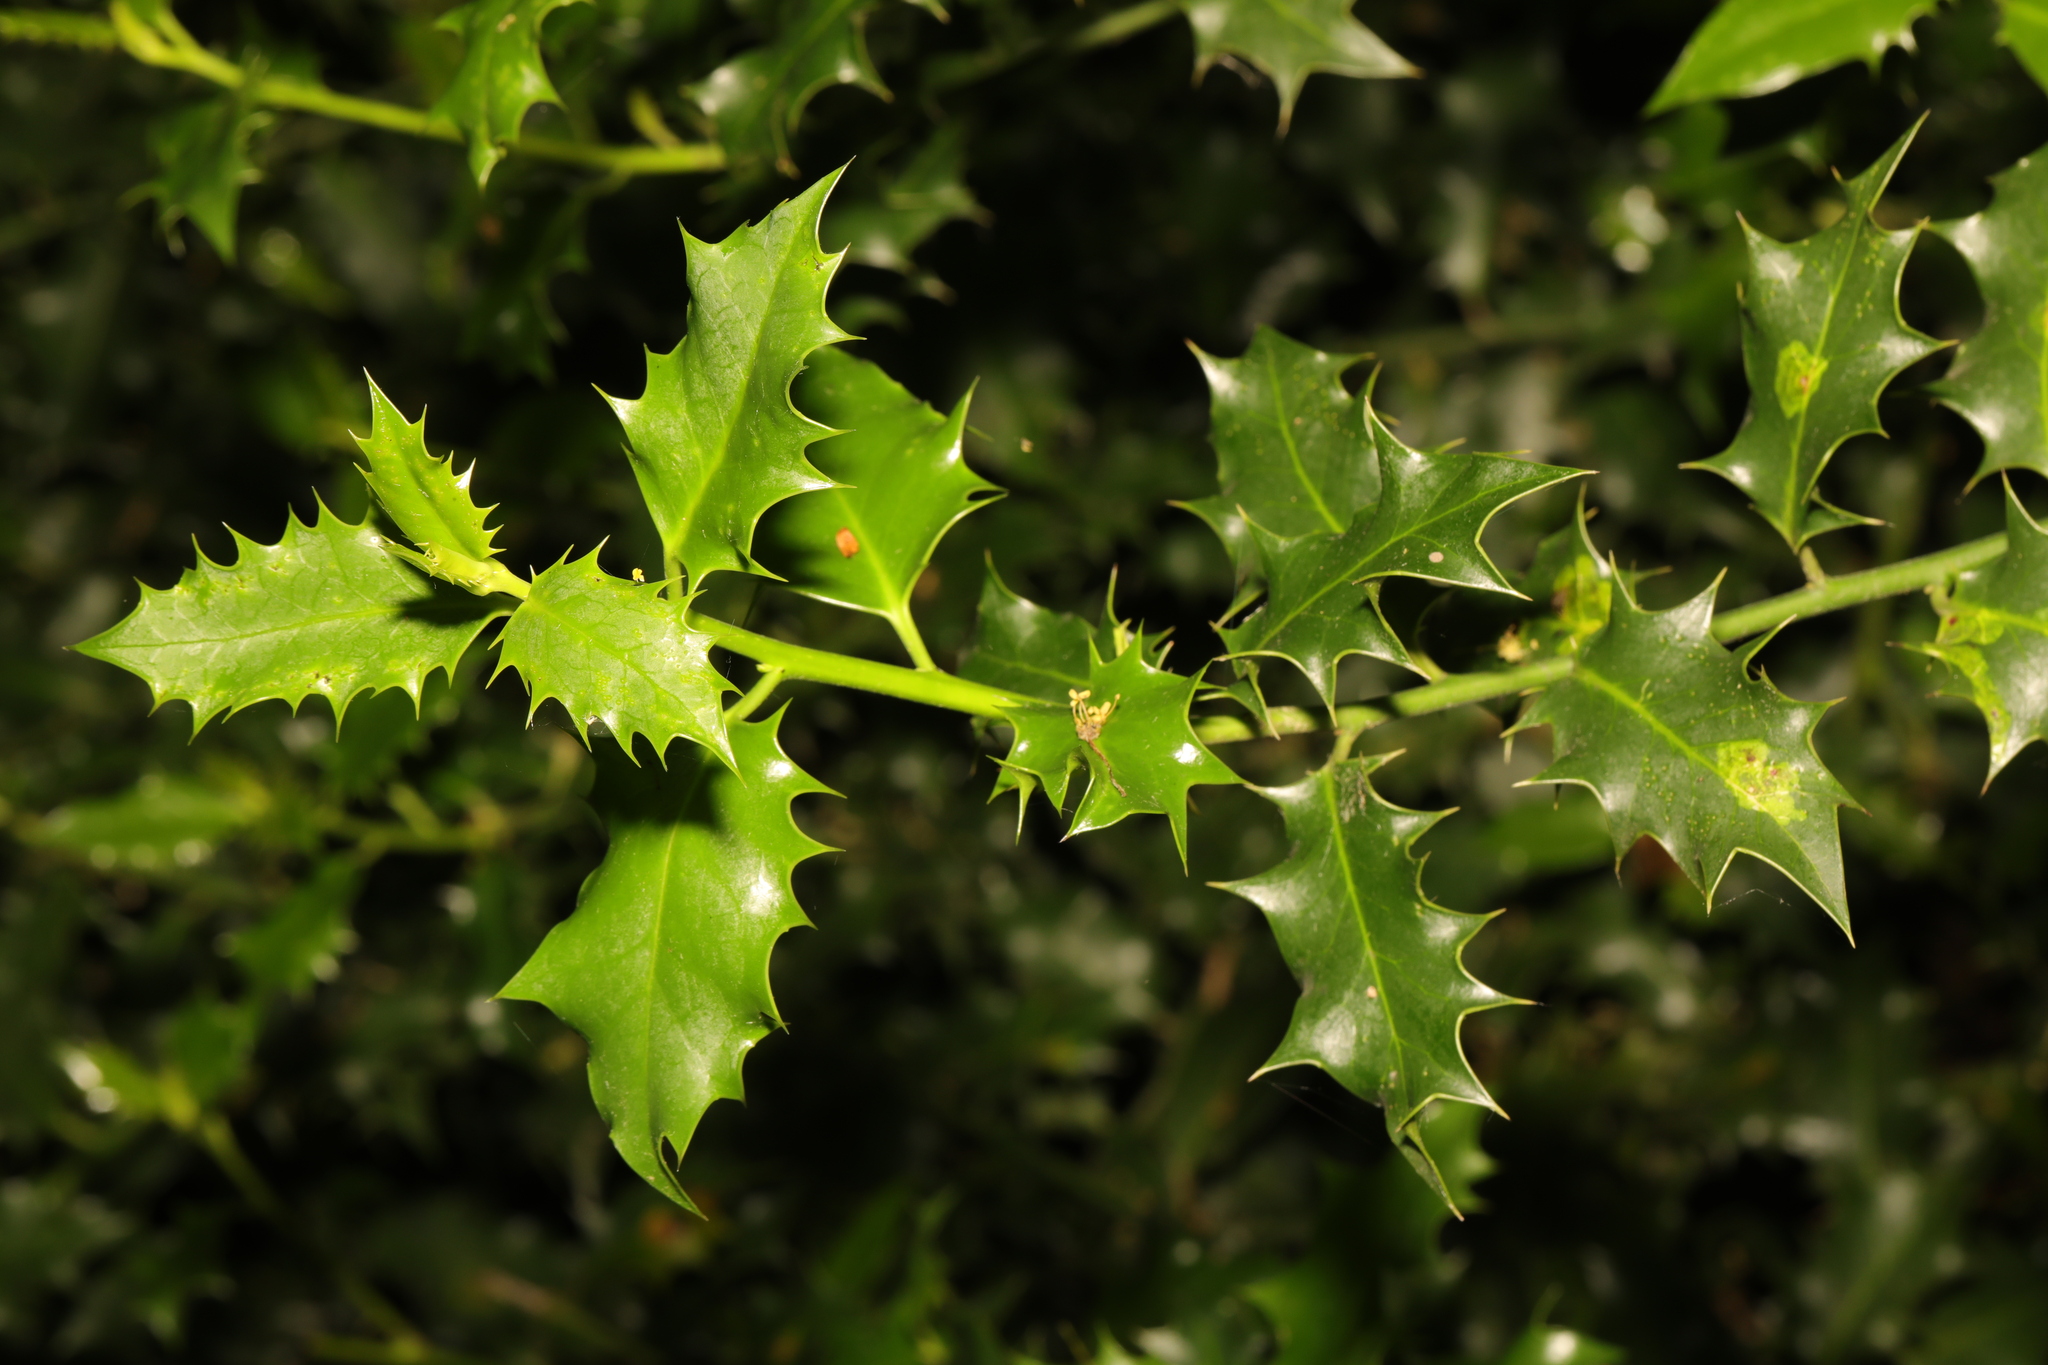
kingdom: Plantae
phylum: Tracheophyta
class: Magnoliopsida
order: Aquifoliales
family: Aquifoliaceae
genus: Ilex
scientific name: Ilex aquifolium
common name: English holly
